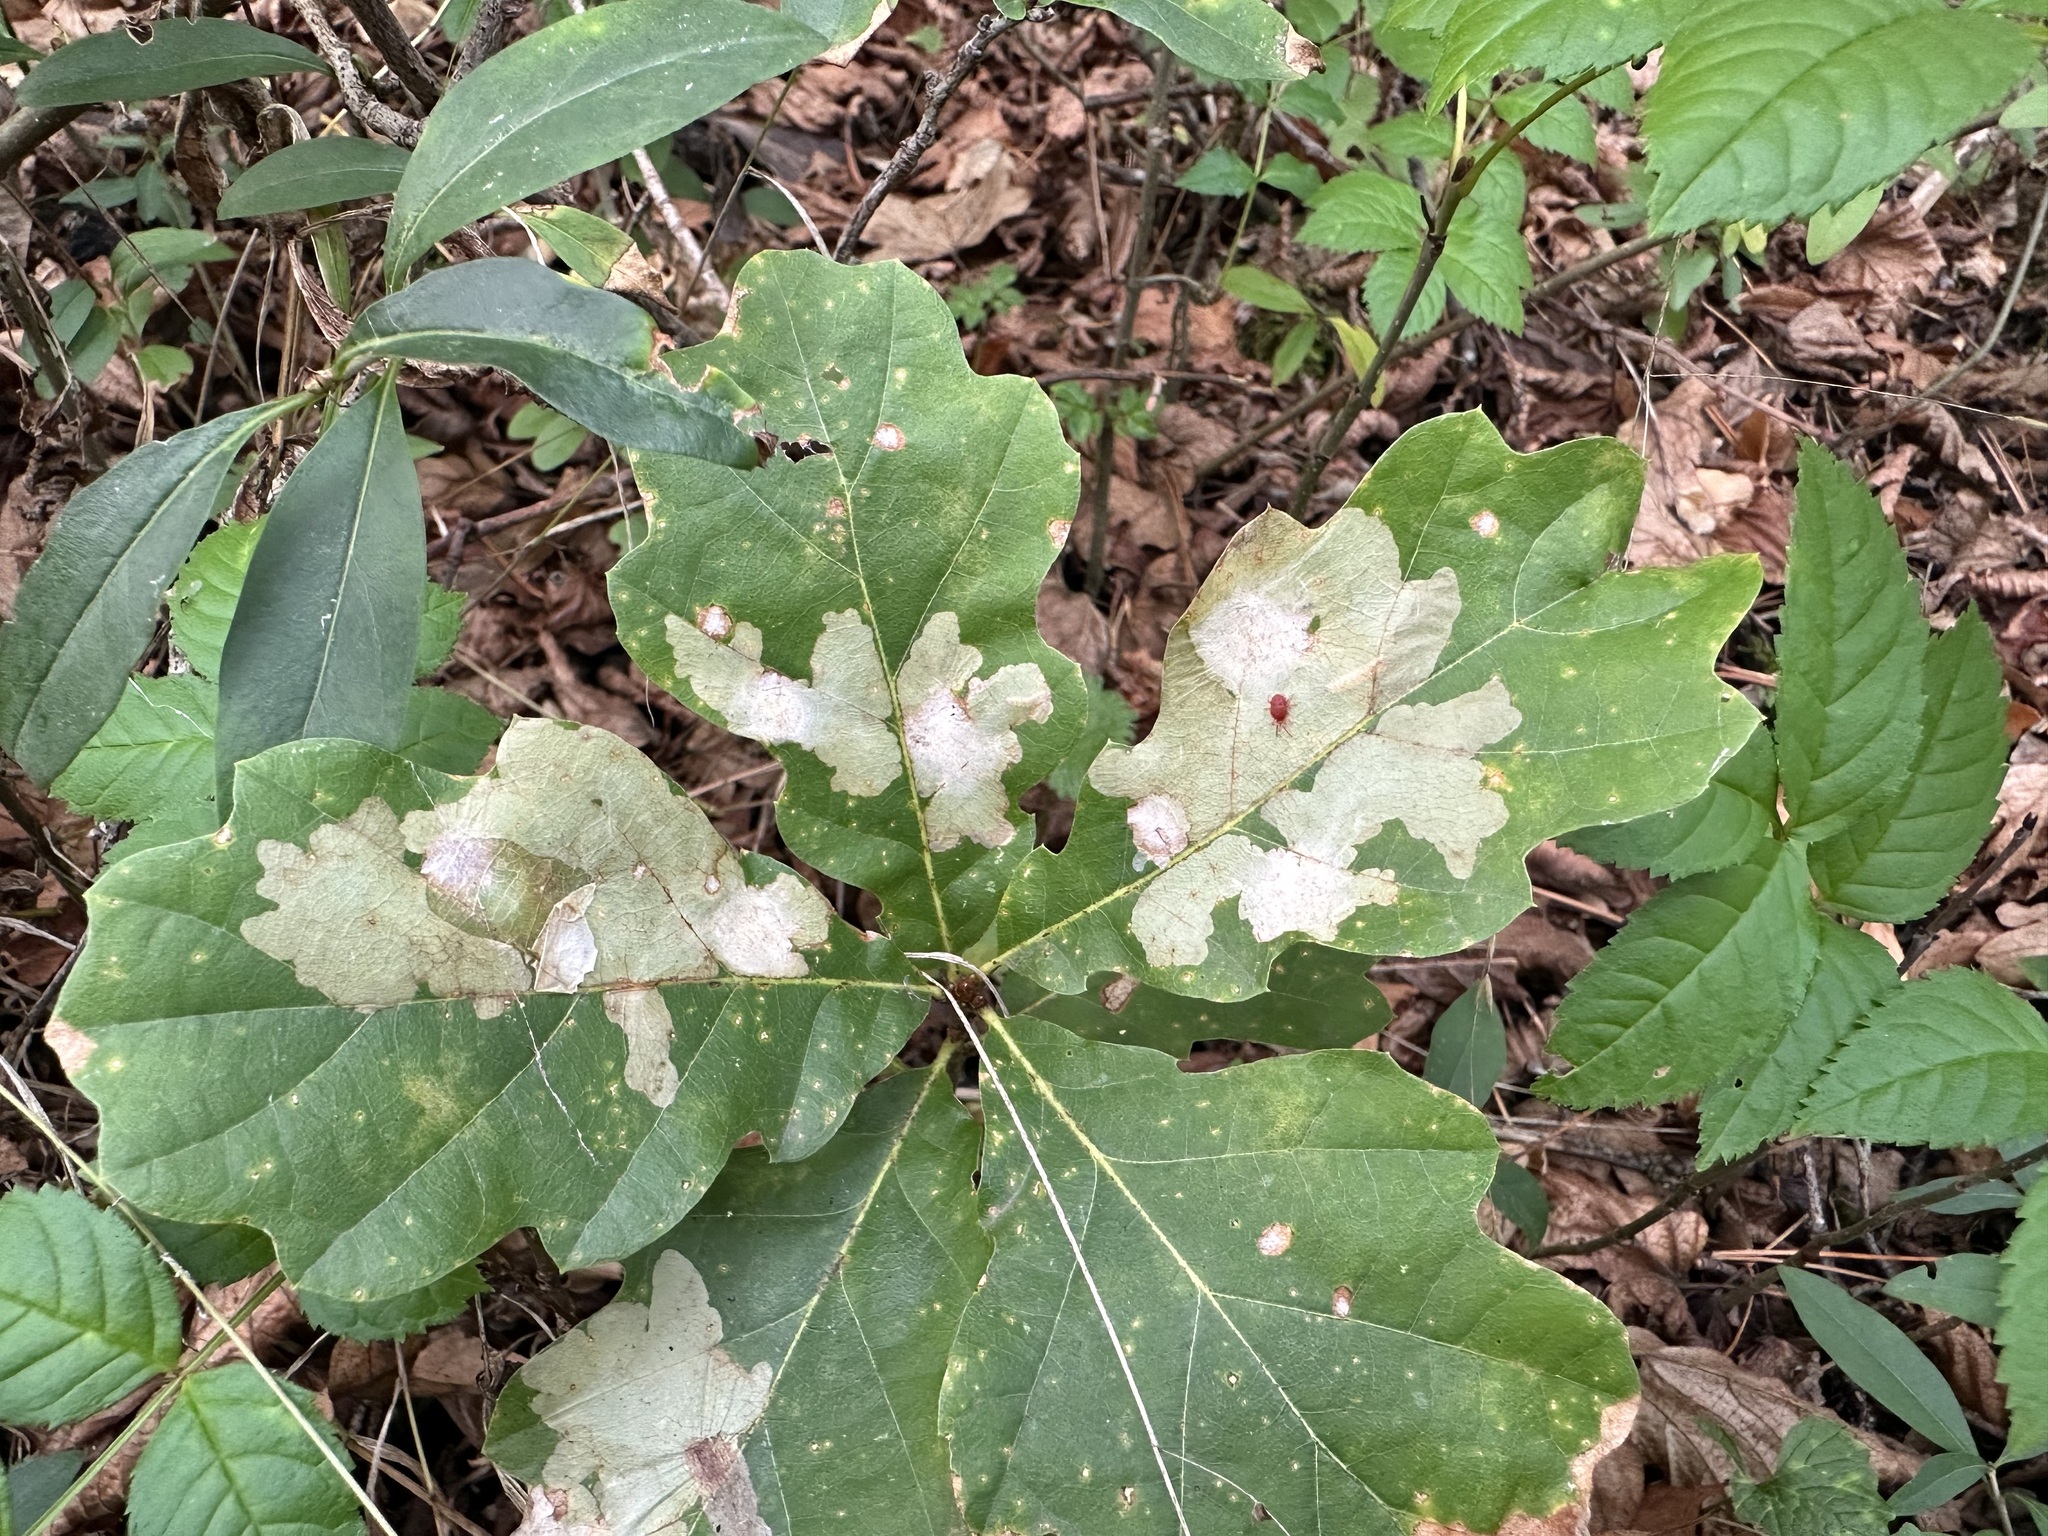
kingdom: Animalia
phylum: Arthropoda
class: Insecta
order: Lepidoptera
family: Tischeriidae
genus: Tischeria
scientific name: Tischeria ekebladella
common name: Oak carl
